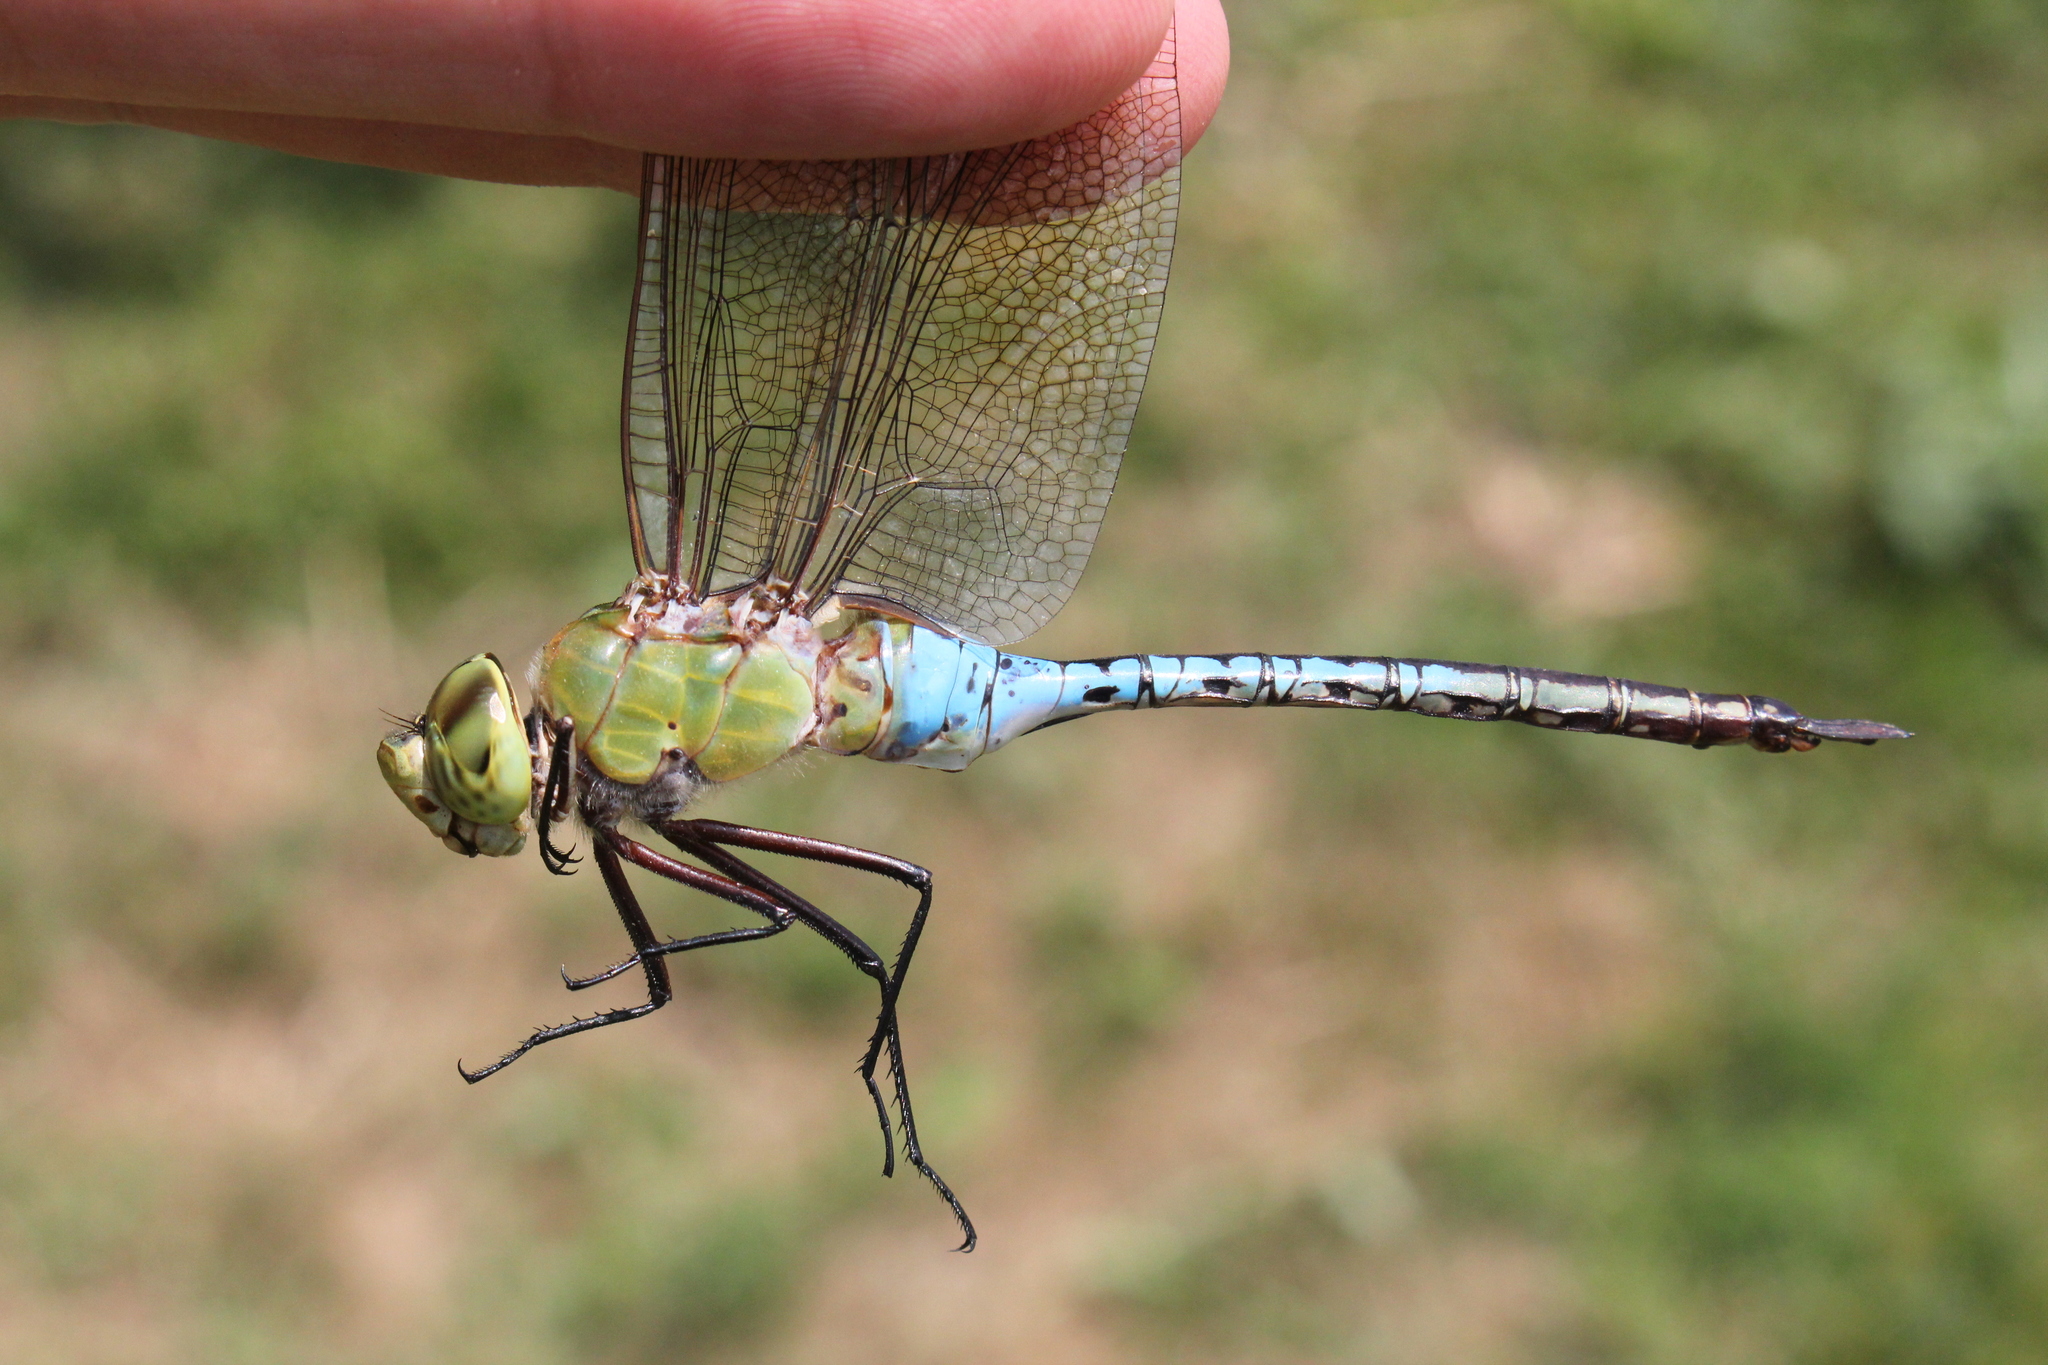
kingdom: Animalia
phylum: Arthropoda
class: Insecta
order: Odonata
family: Aeshnidae
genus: Anax
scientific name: Anax junius
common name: Common green darner
